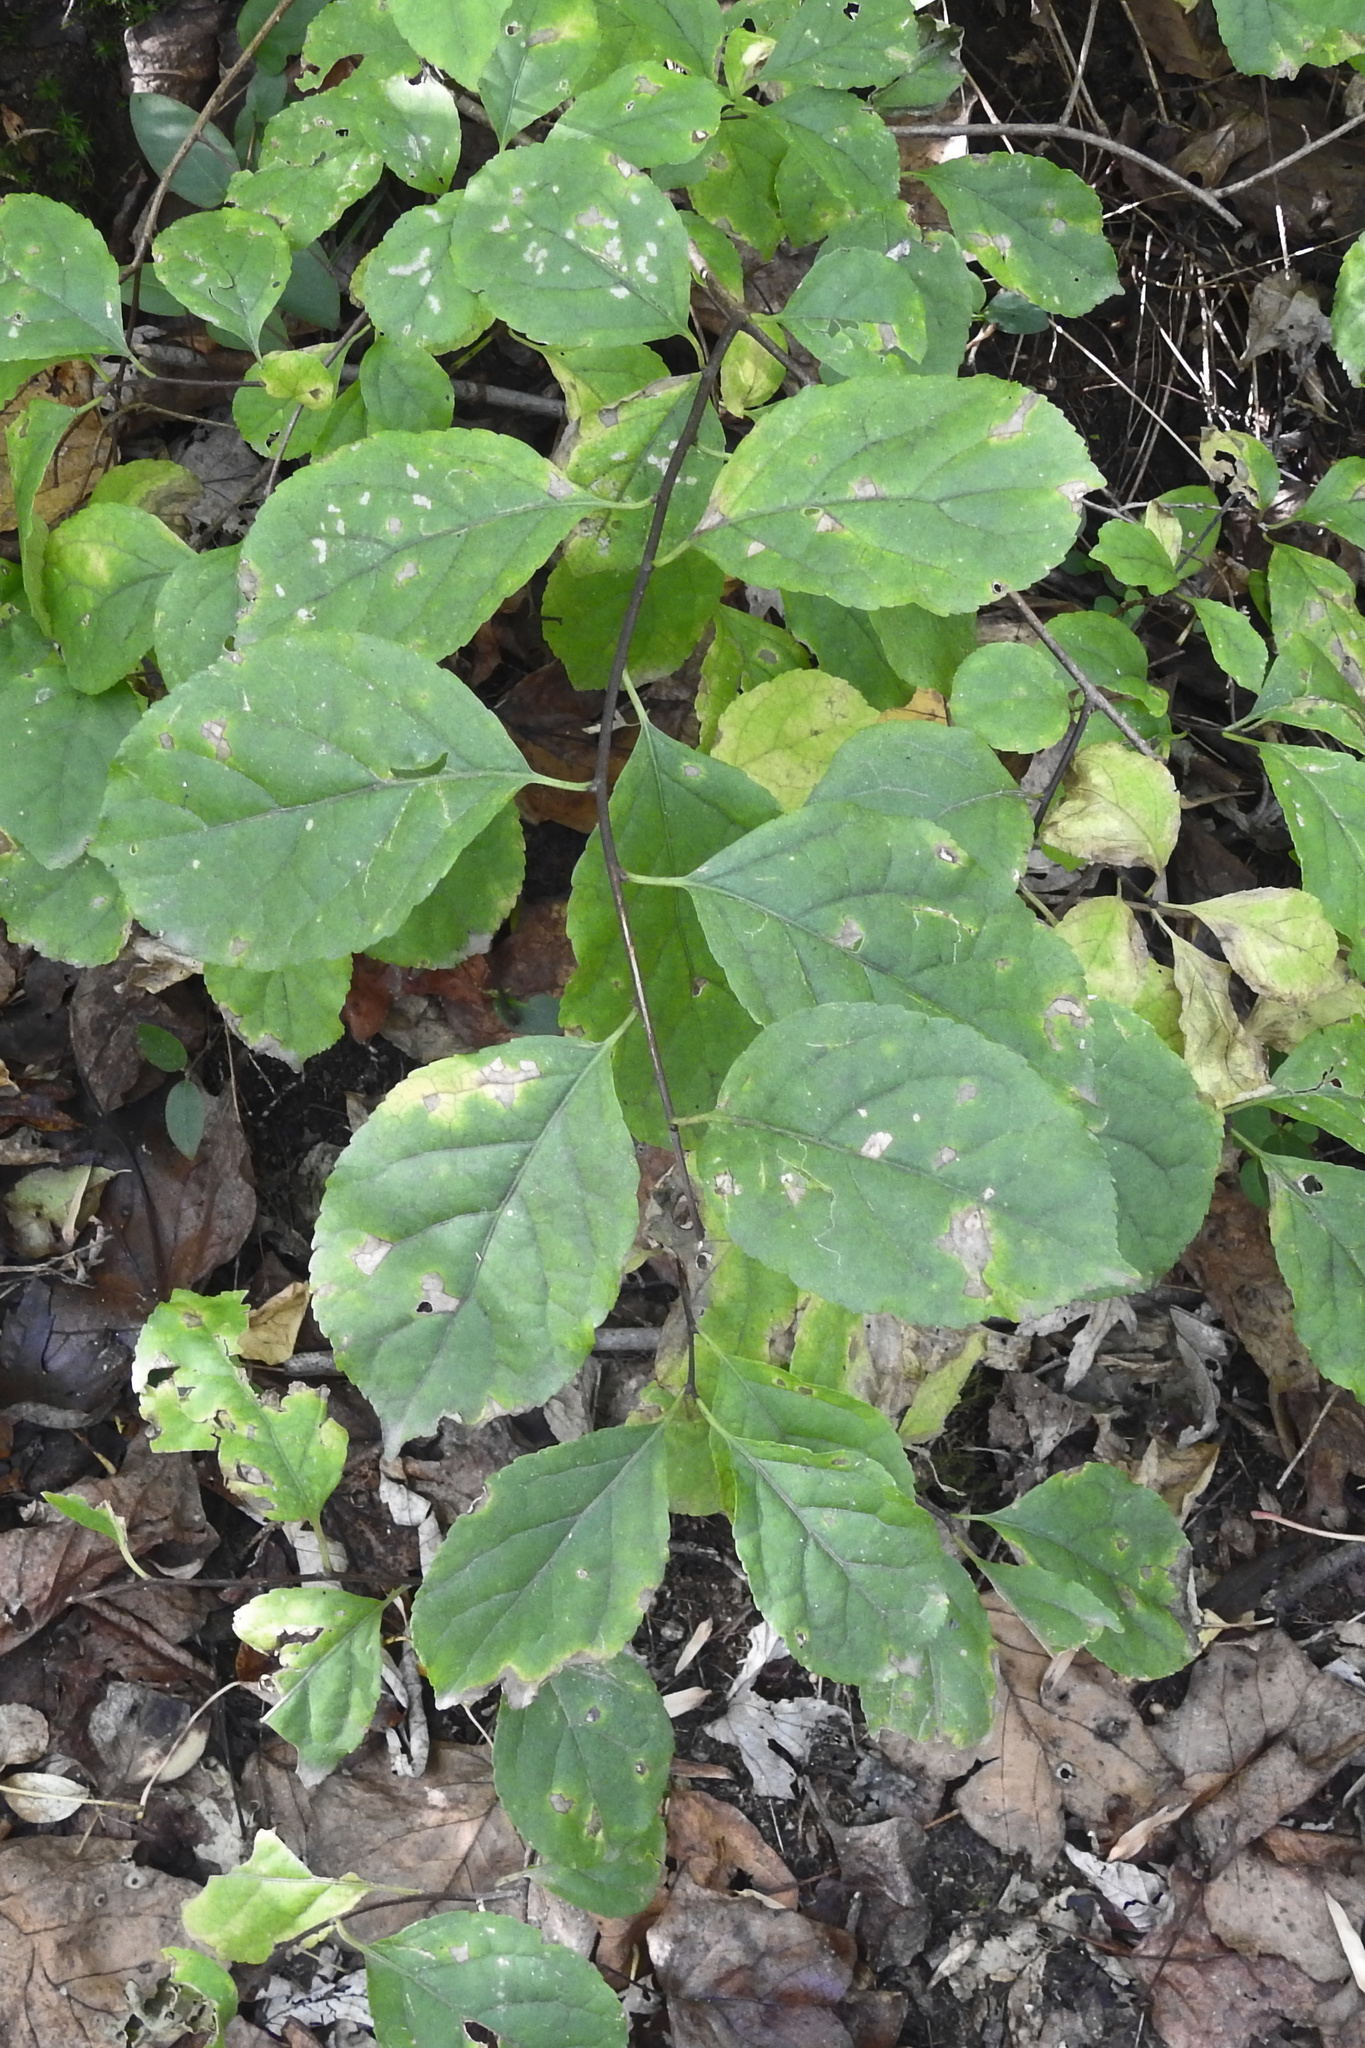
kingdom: Plantae
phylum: Tracheophyta
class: Magnoliopsida
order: Celastrales
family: Celastraceae
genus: Celastrus
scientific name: Celastrus orbiculatus
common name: Oriental bittersweet
